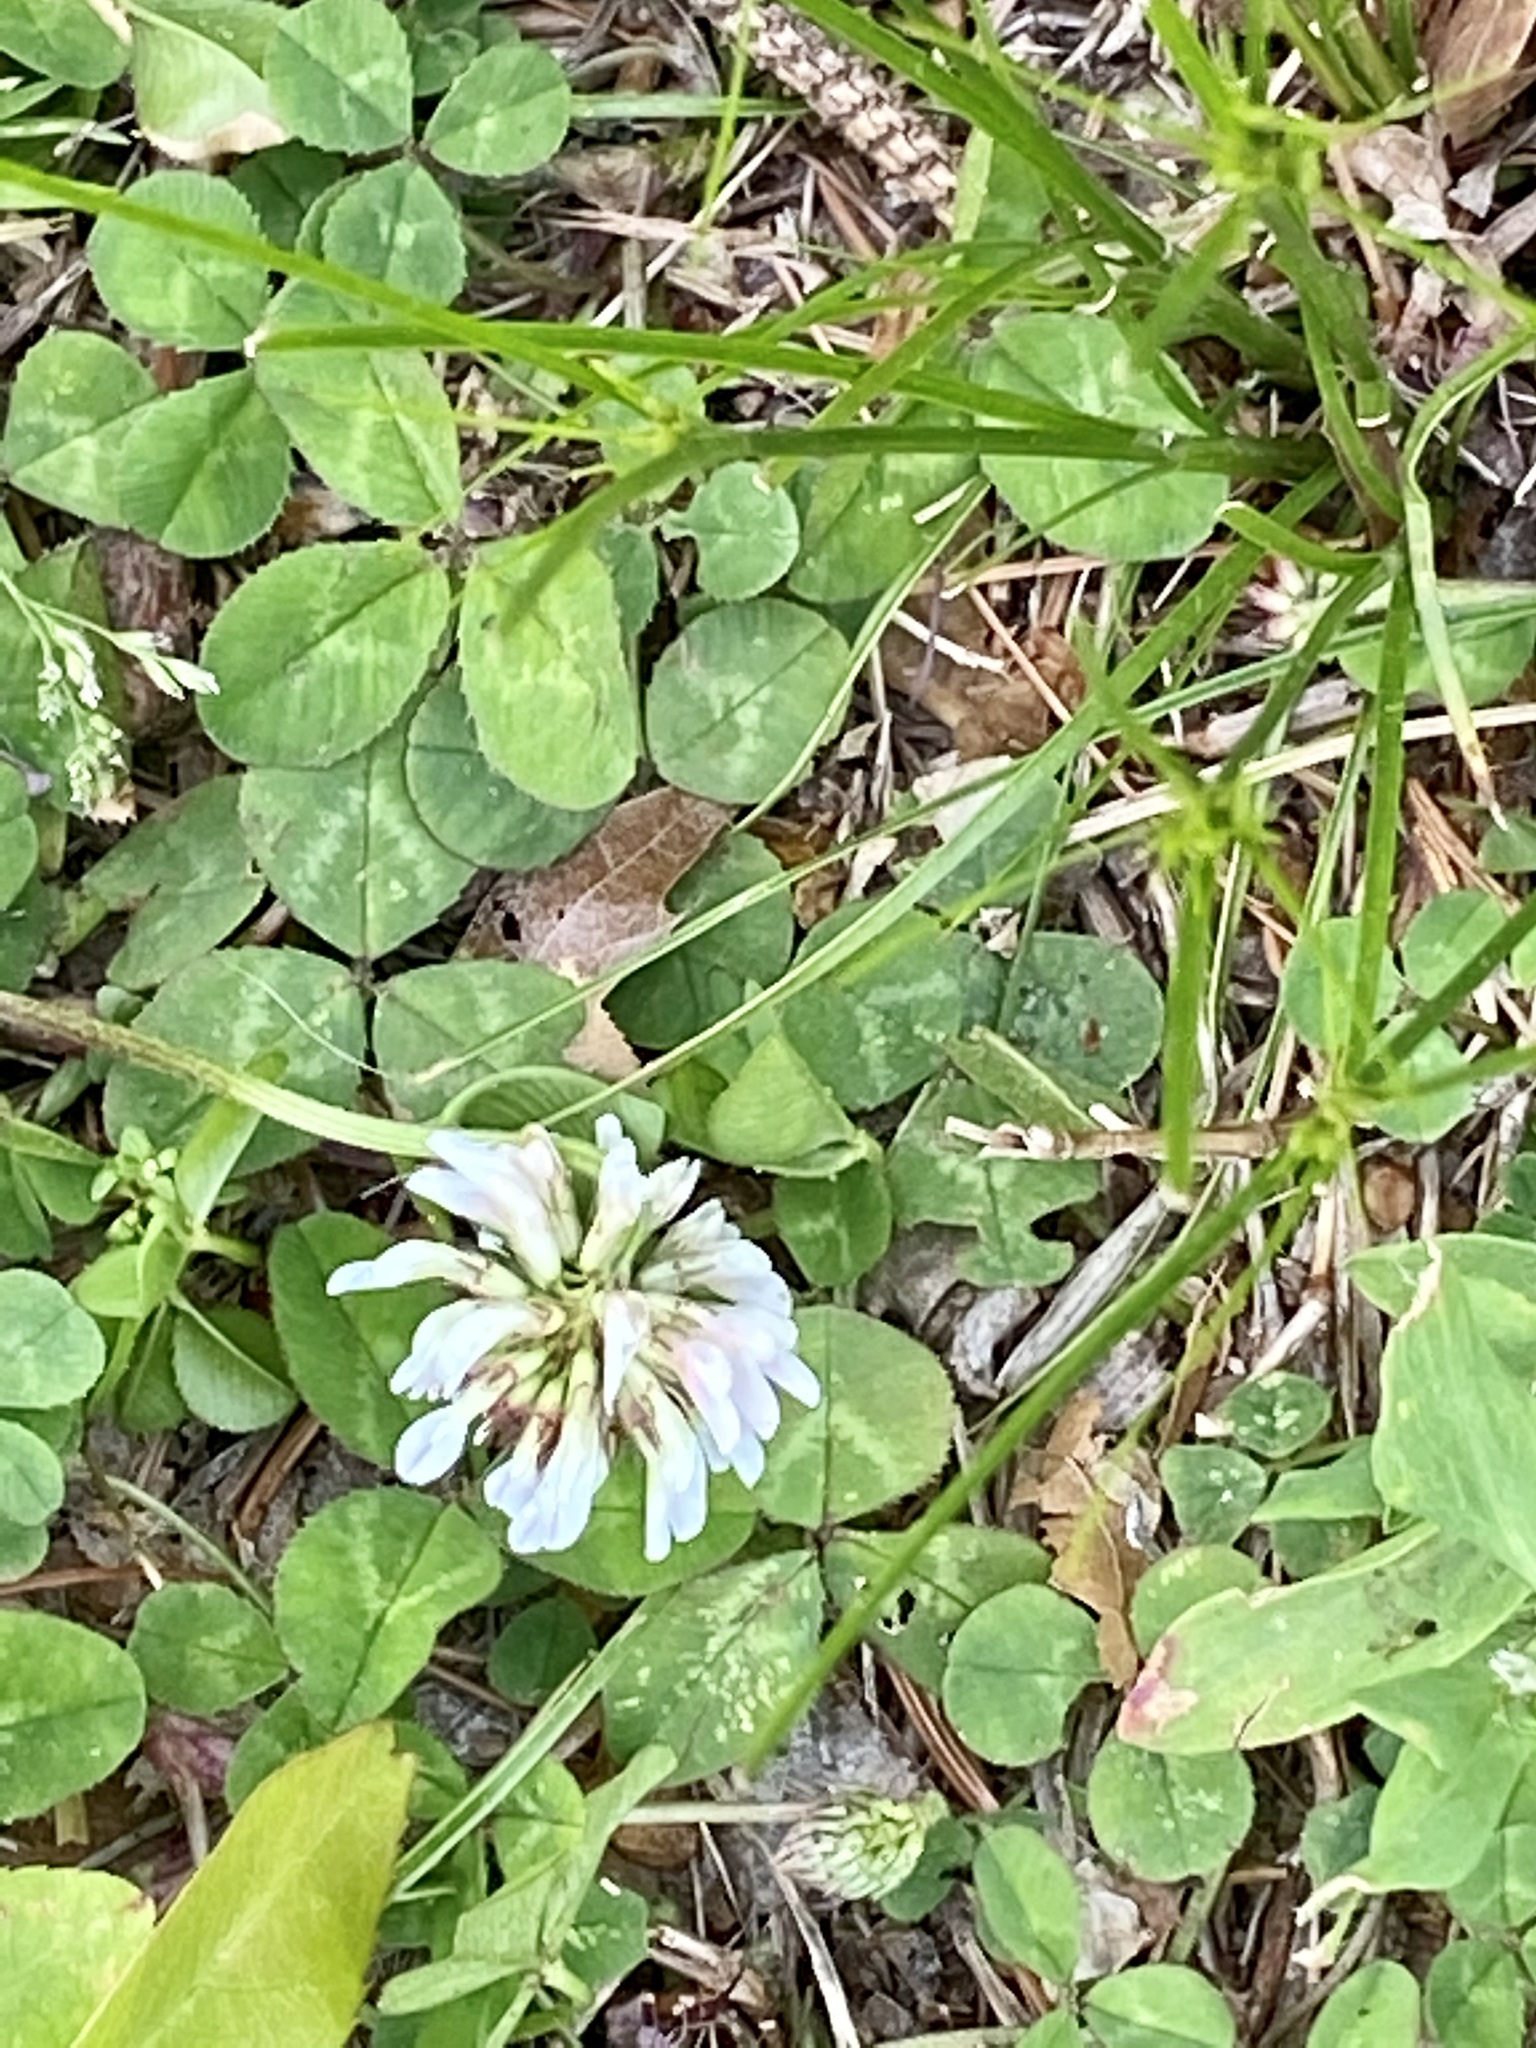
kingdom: Plantae
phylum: Tracheophyta
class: Magnoliopsida
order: Fabales
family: Fabaceae
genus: Trifolium
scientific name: Trifolium repens
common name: White clover
